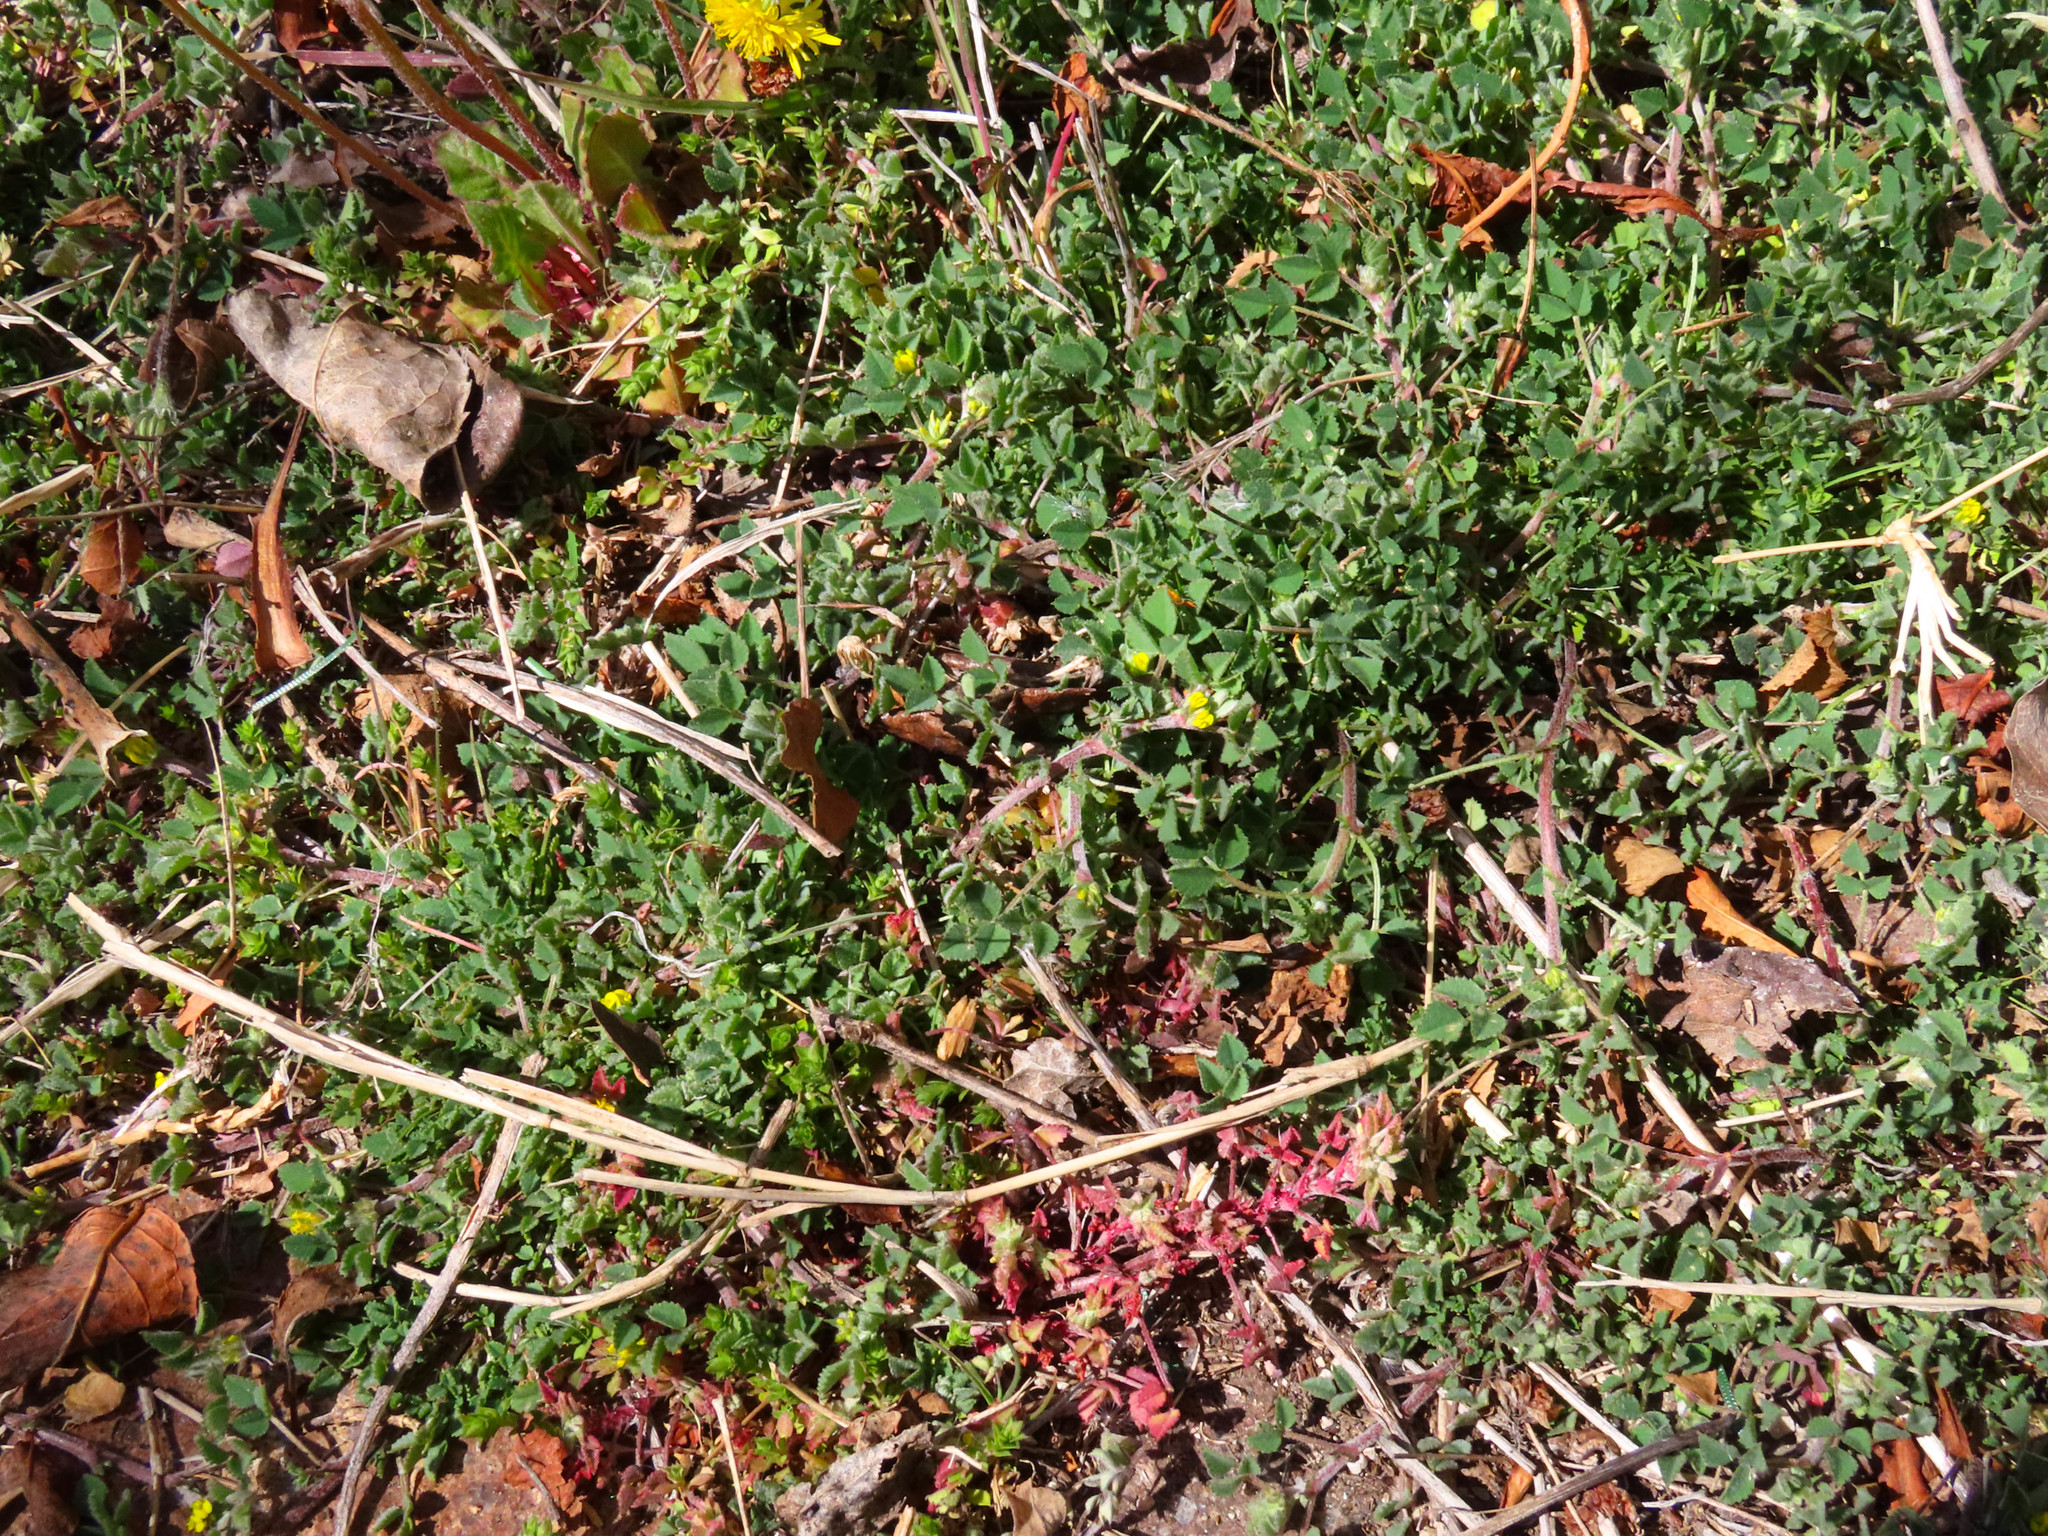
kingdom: Plantae
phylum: Tracheophyta
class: Magnoliopsida
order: Fabales
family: Fabaceae
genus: Medicago
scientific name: Medicago monspeliaca
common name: Hairy medick
